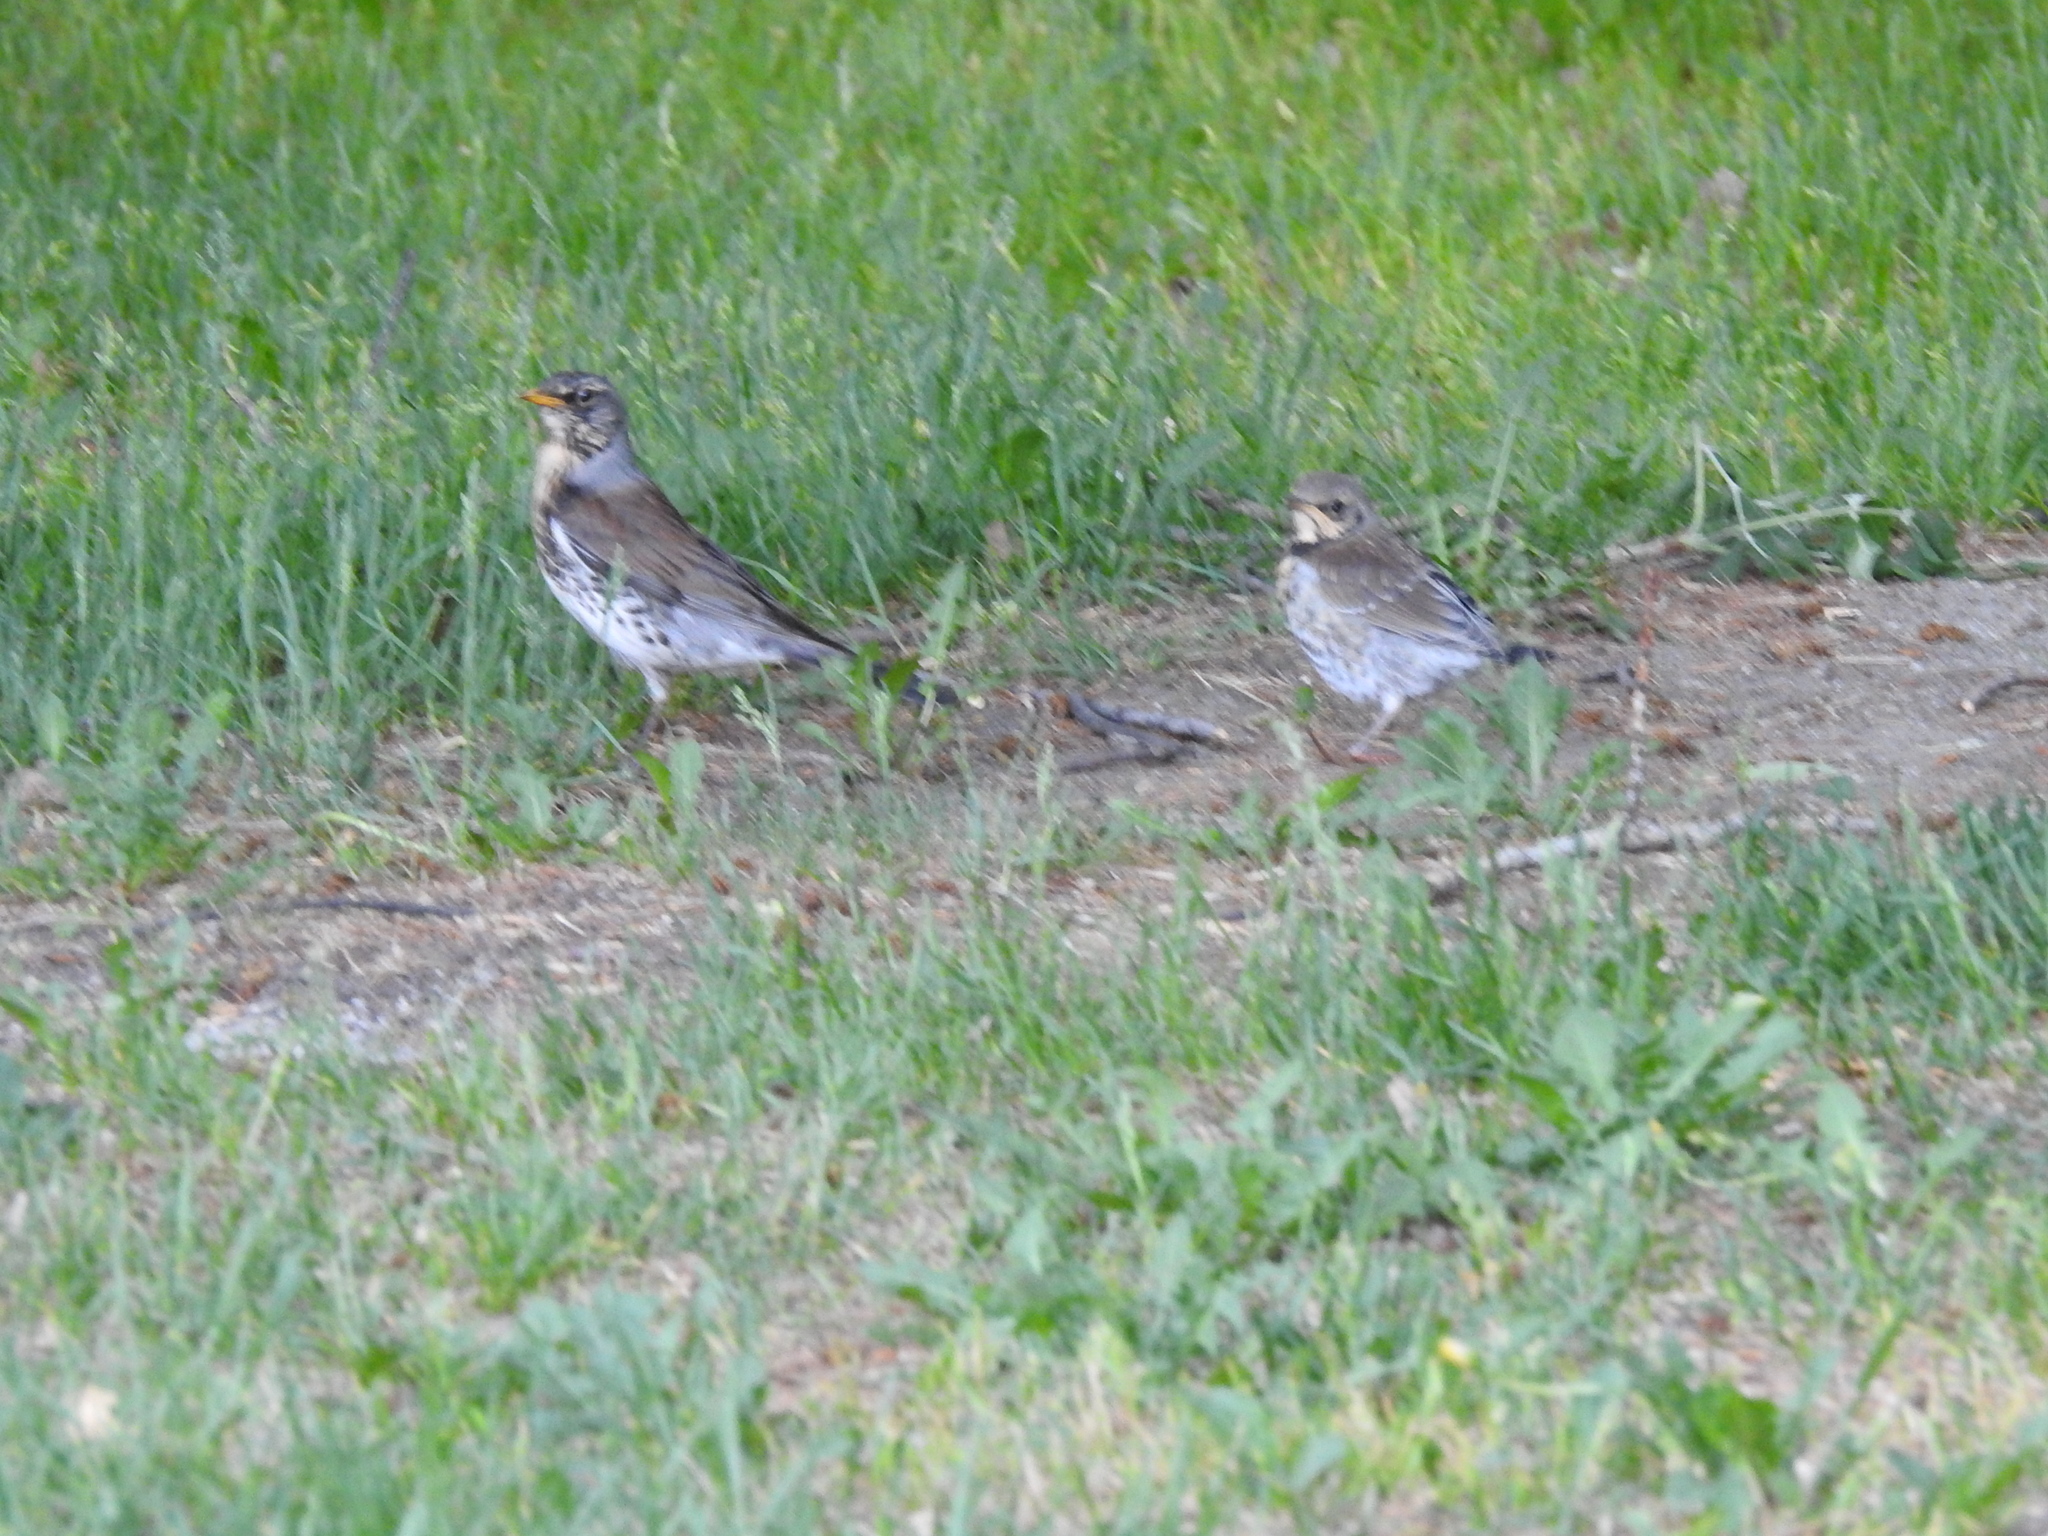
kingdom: Animalia
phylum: Chordata
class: Aves
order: Passeriformes
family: Turdidae
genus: Turdus
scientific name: Turdus pilaris
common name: Fieldfare
